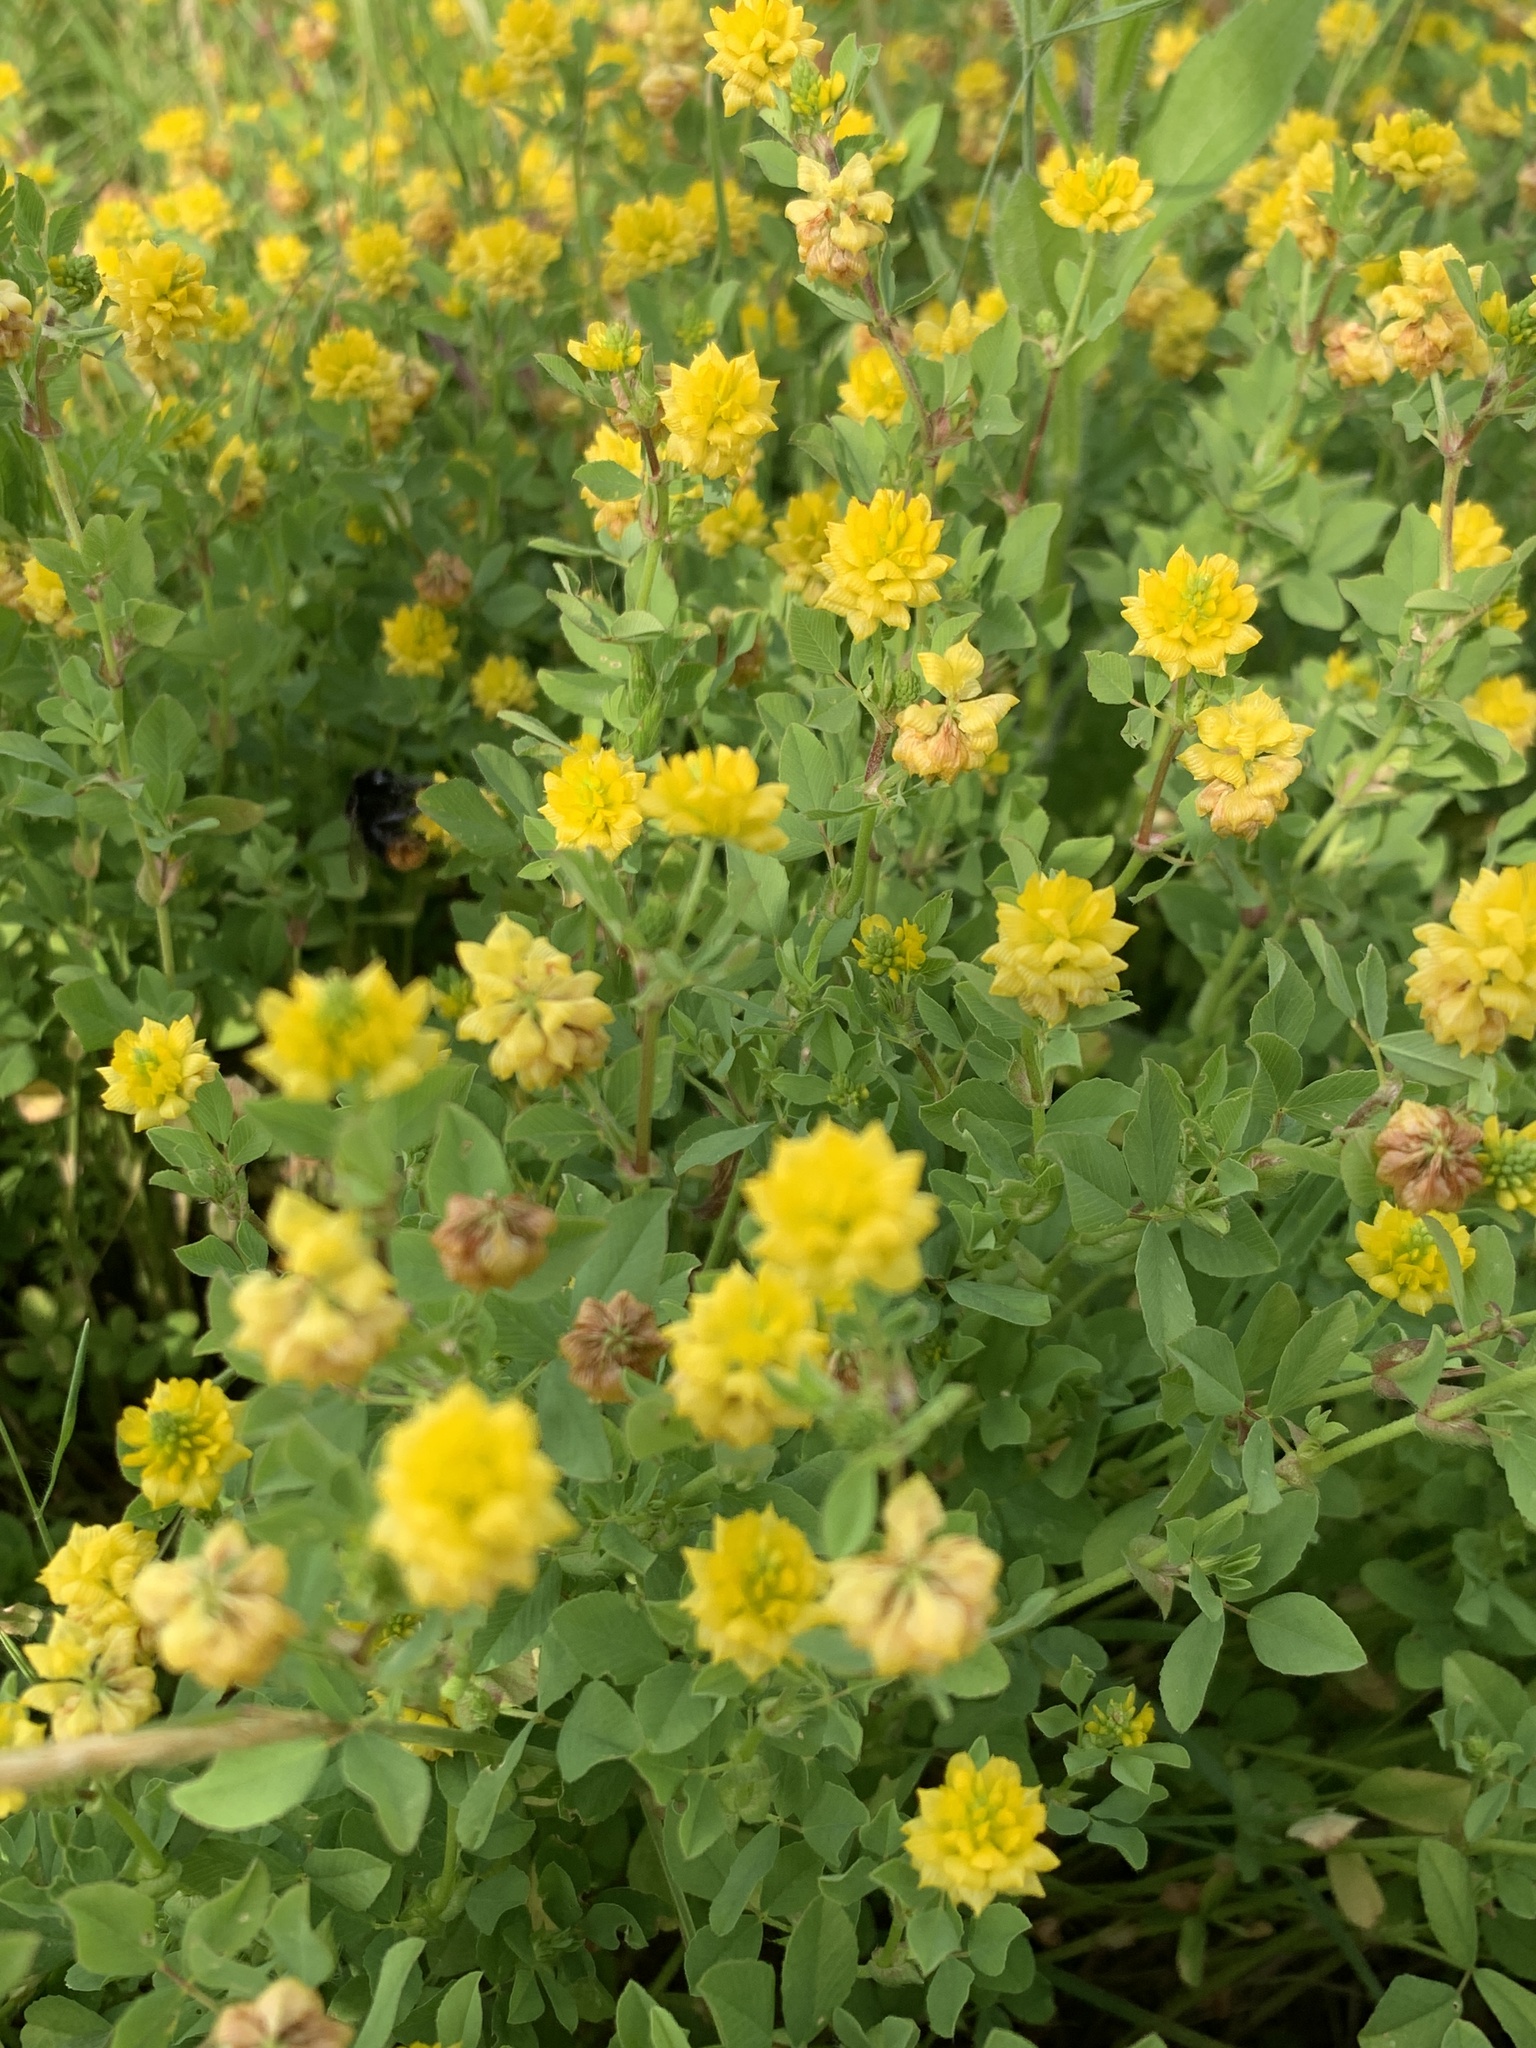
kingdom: Plantae
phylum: Tracheophyta
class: Magnoliopsida
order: Fabales
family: Fabaceae
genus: Trifolium
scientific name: Trifolium campestre
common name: Field clover
